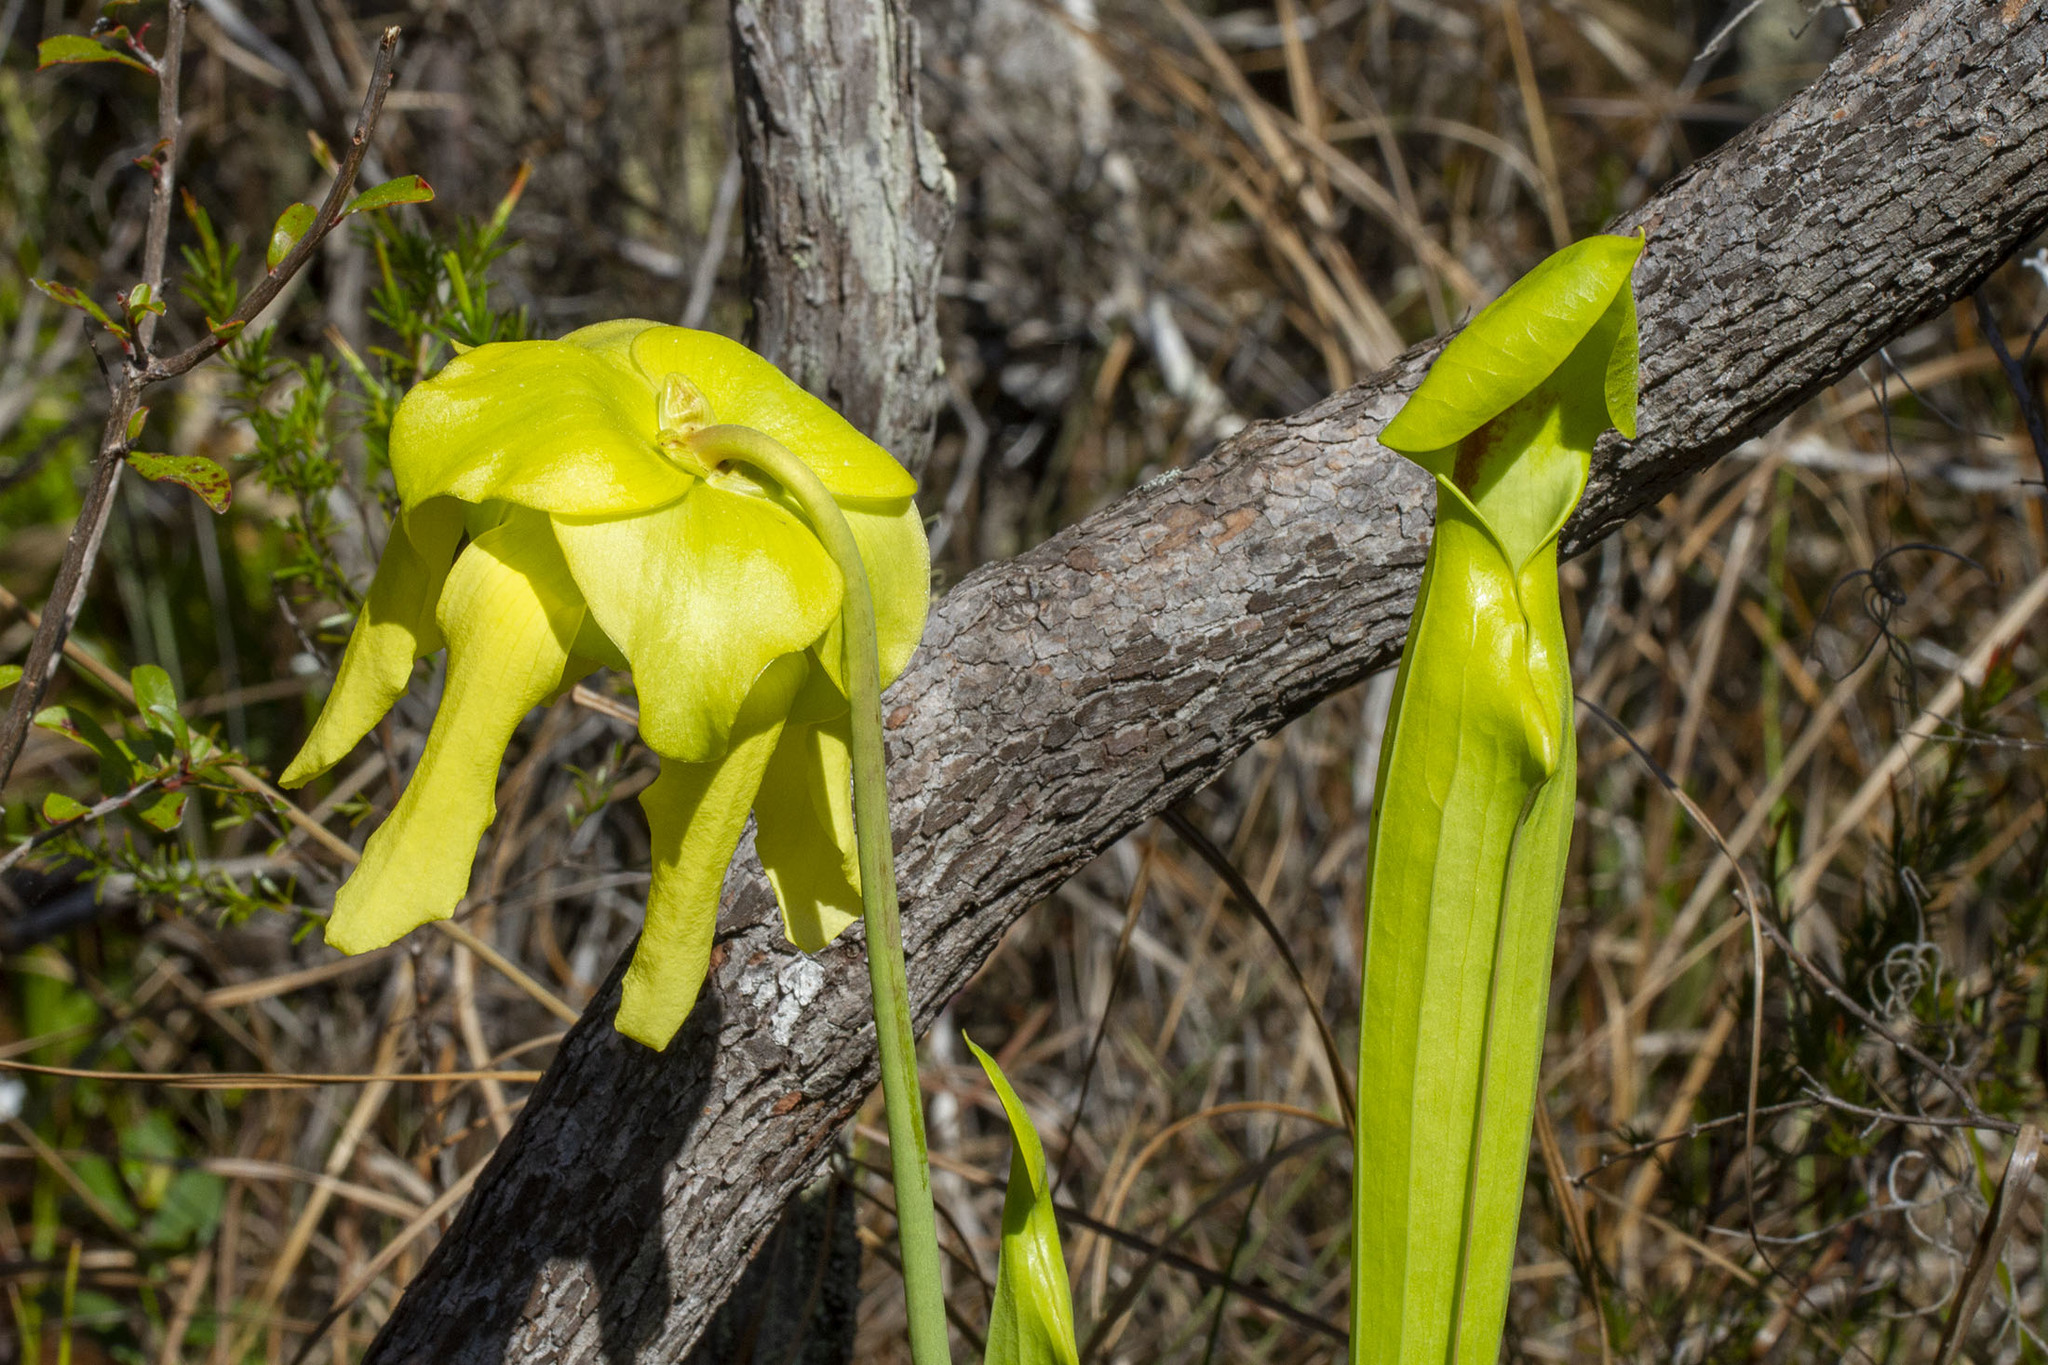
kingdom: Plantae
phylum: Tracheophyta
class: Magnoliopsida
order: Ericales
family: Sarraceniaceae
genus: Sarracenia
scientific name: Sarracenia flava
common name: Trumpets
